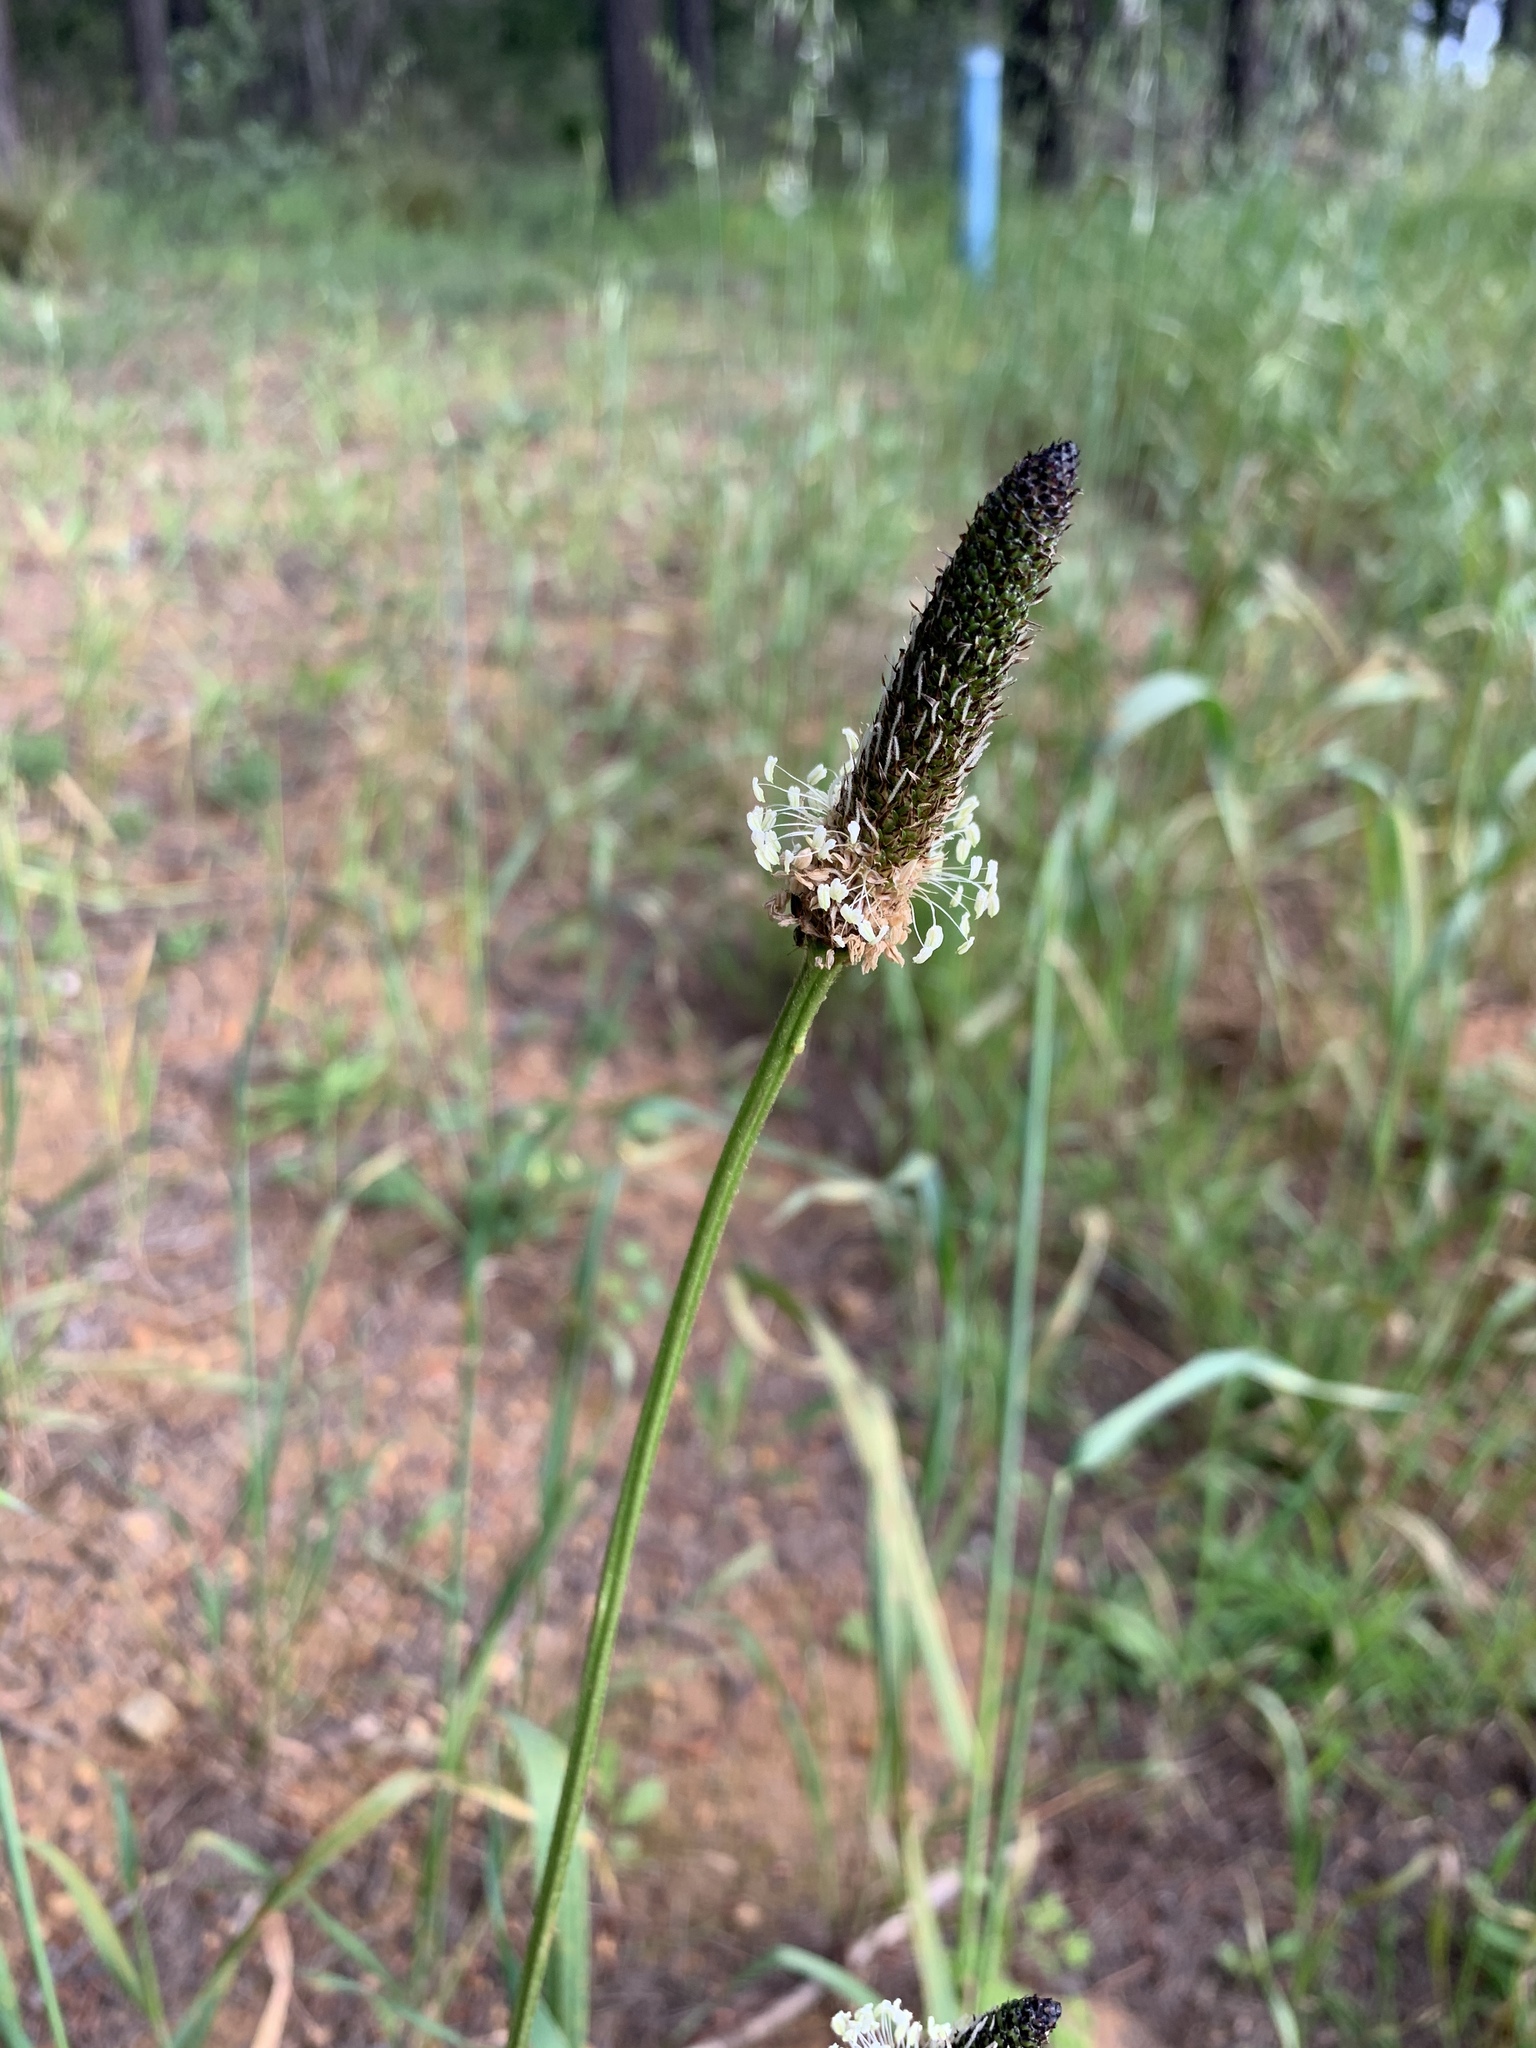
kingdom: Plantae
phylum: Tracheophyta
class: Magnoliopsida
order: Lamiales
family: Plantaginaceae
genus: Plantago
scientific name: Plantago lanceolata
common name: Ribwort plantain
